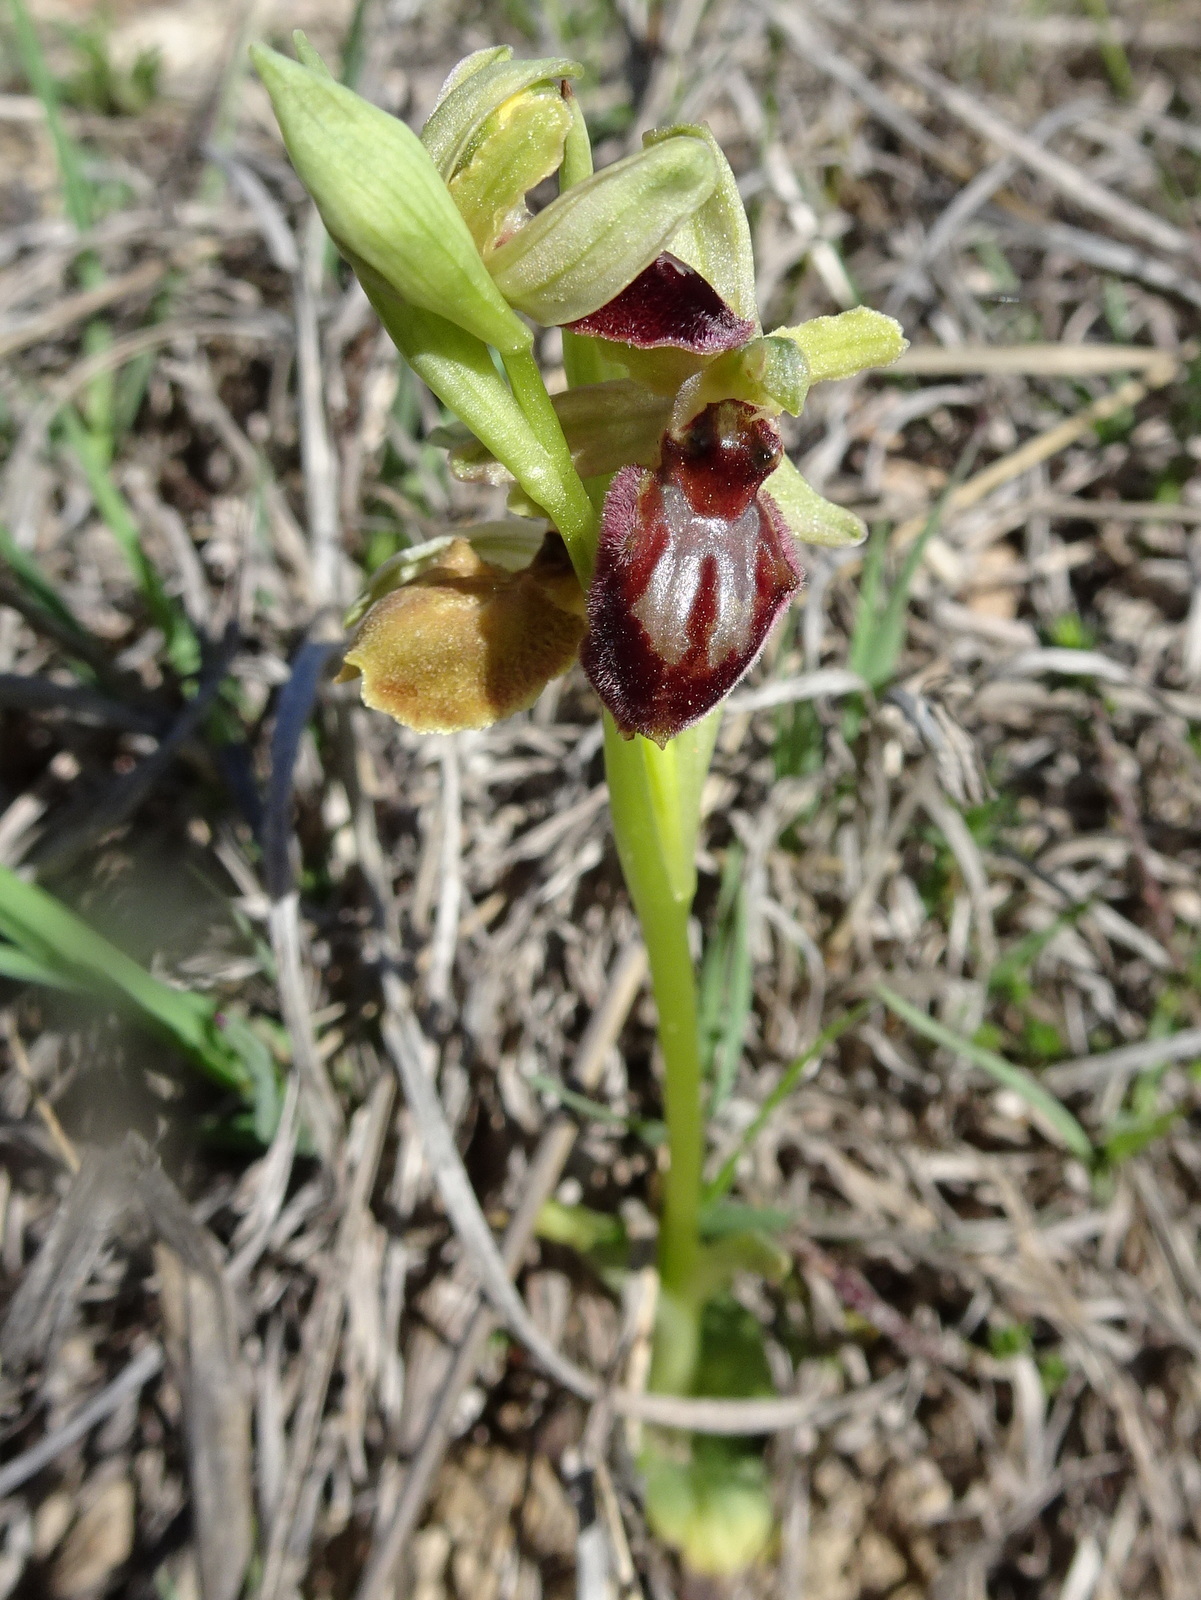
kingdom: Plantae
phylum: Tracheophyta
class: Liliopsida
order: Asparagales
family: Orchidaceae
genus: Ophrys
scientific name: Ophrys sphegodes
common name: Early spider-orchid
